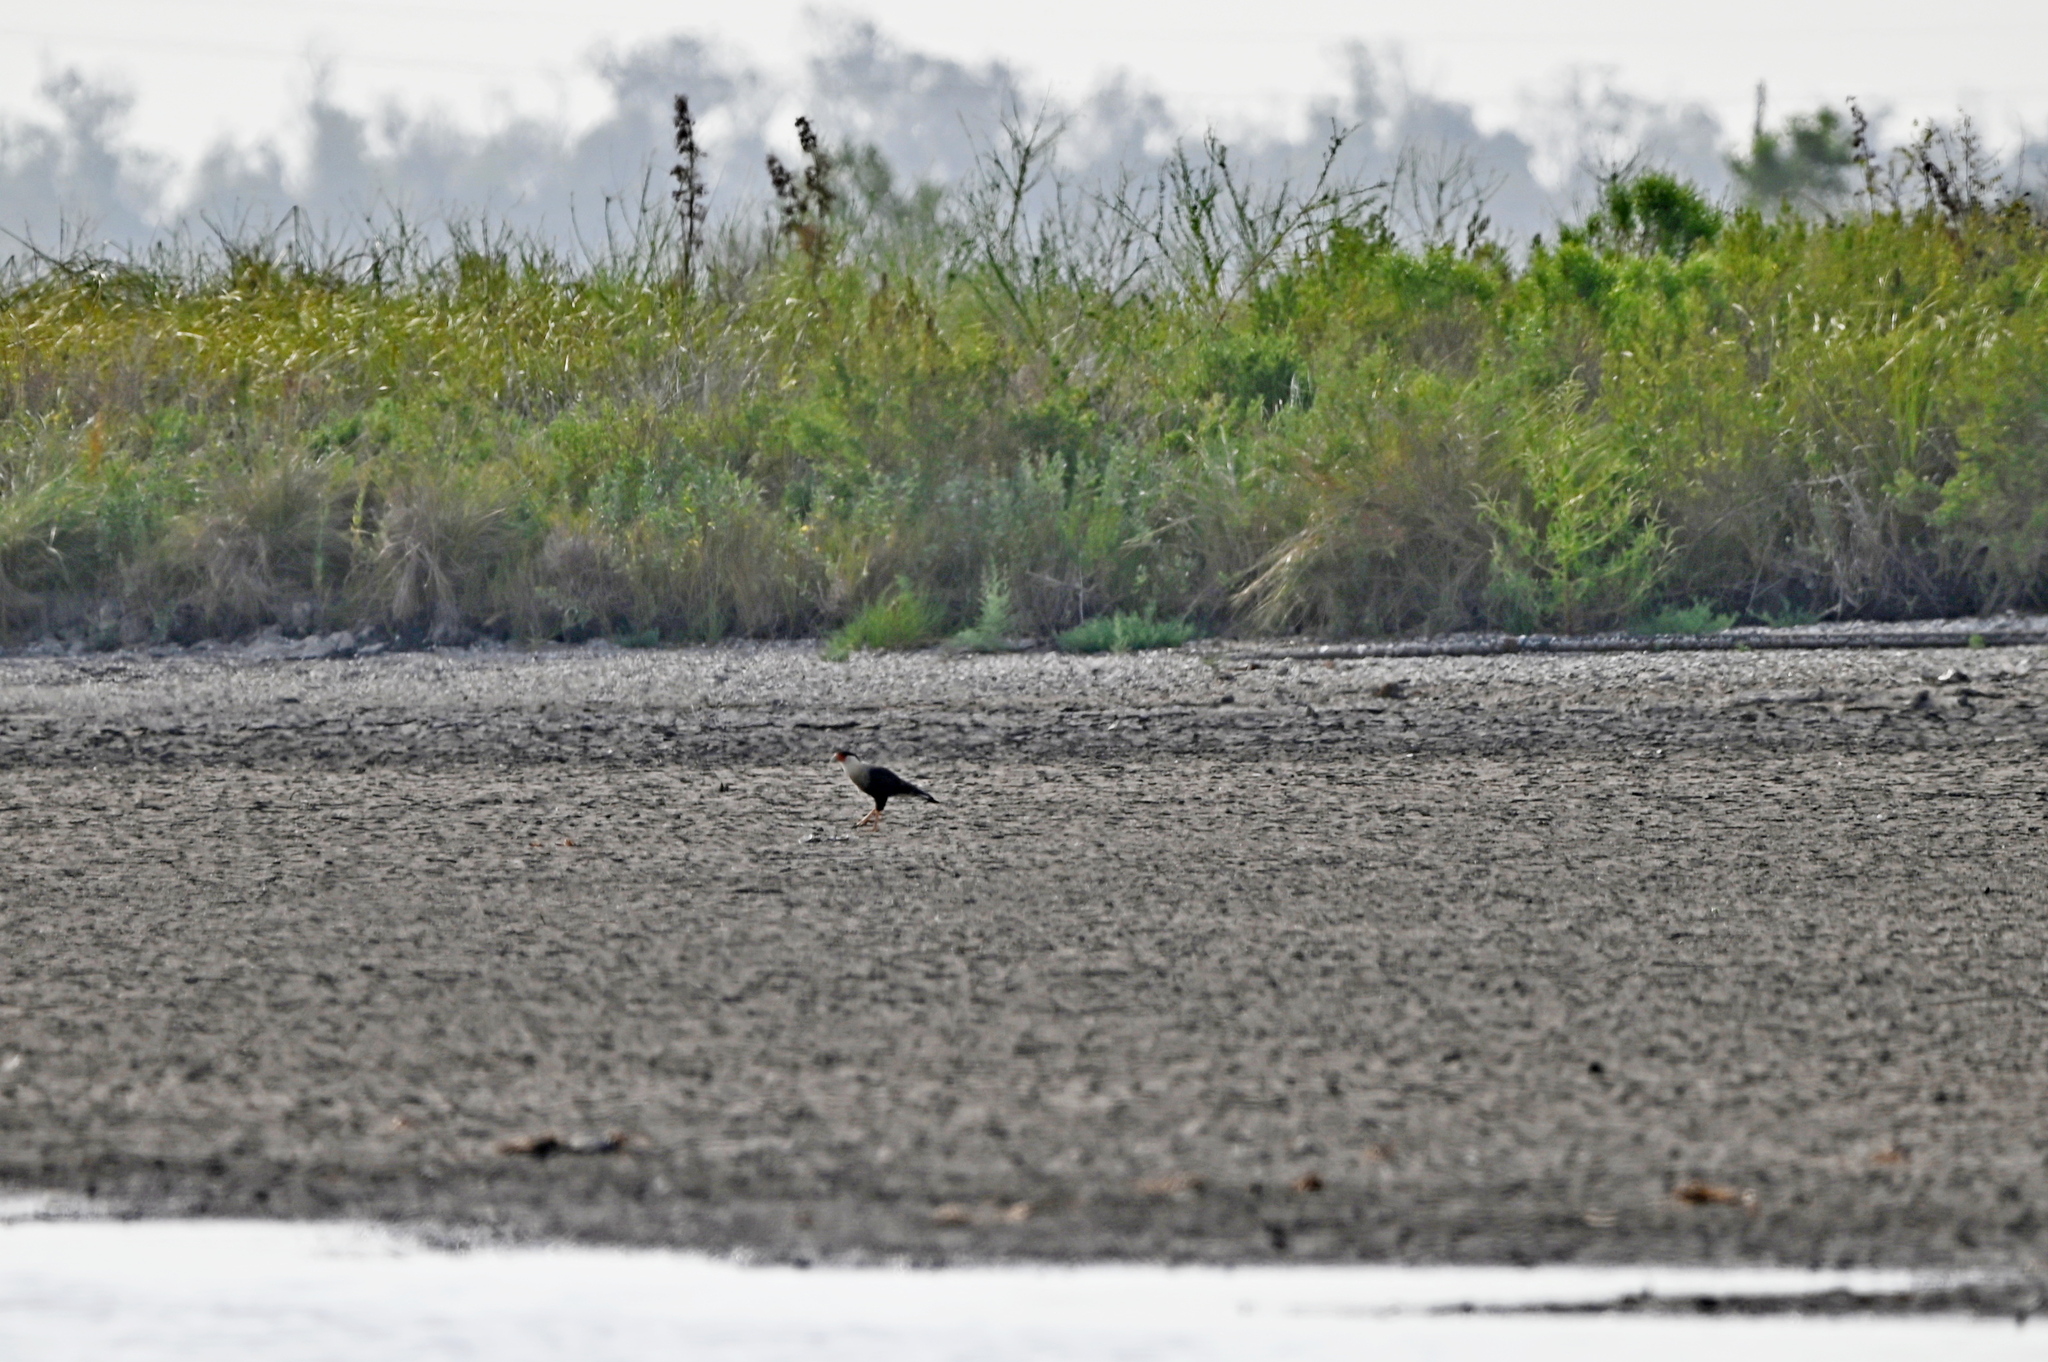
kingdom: Animalia
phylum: Chordata
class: Aves
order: Falconiformes
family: Falconidae
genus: Caracara
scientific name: Caracara plancus
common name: Southern caracara
